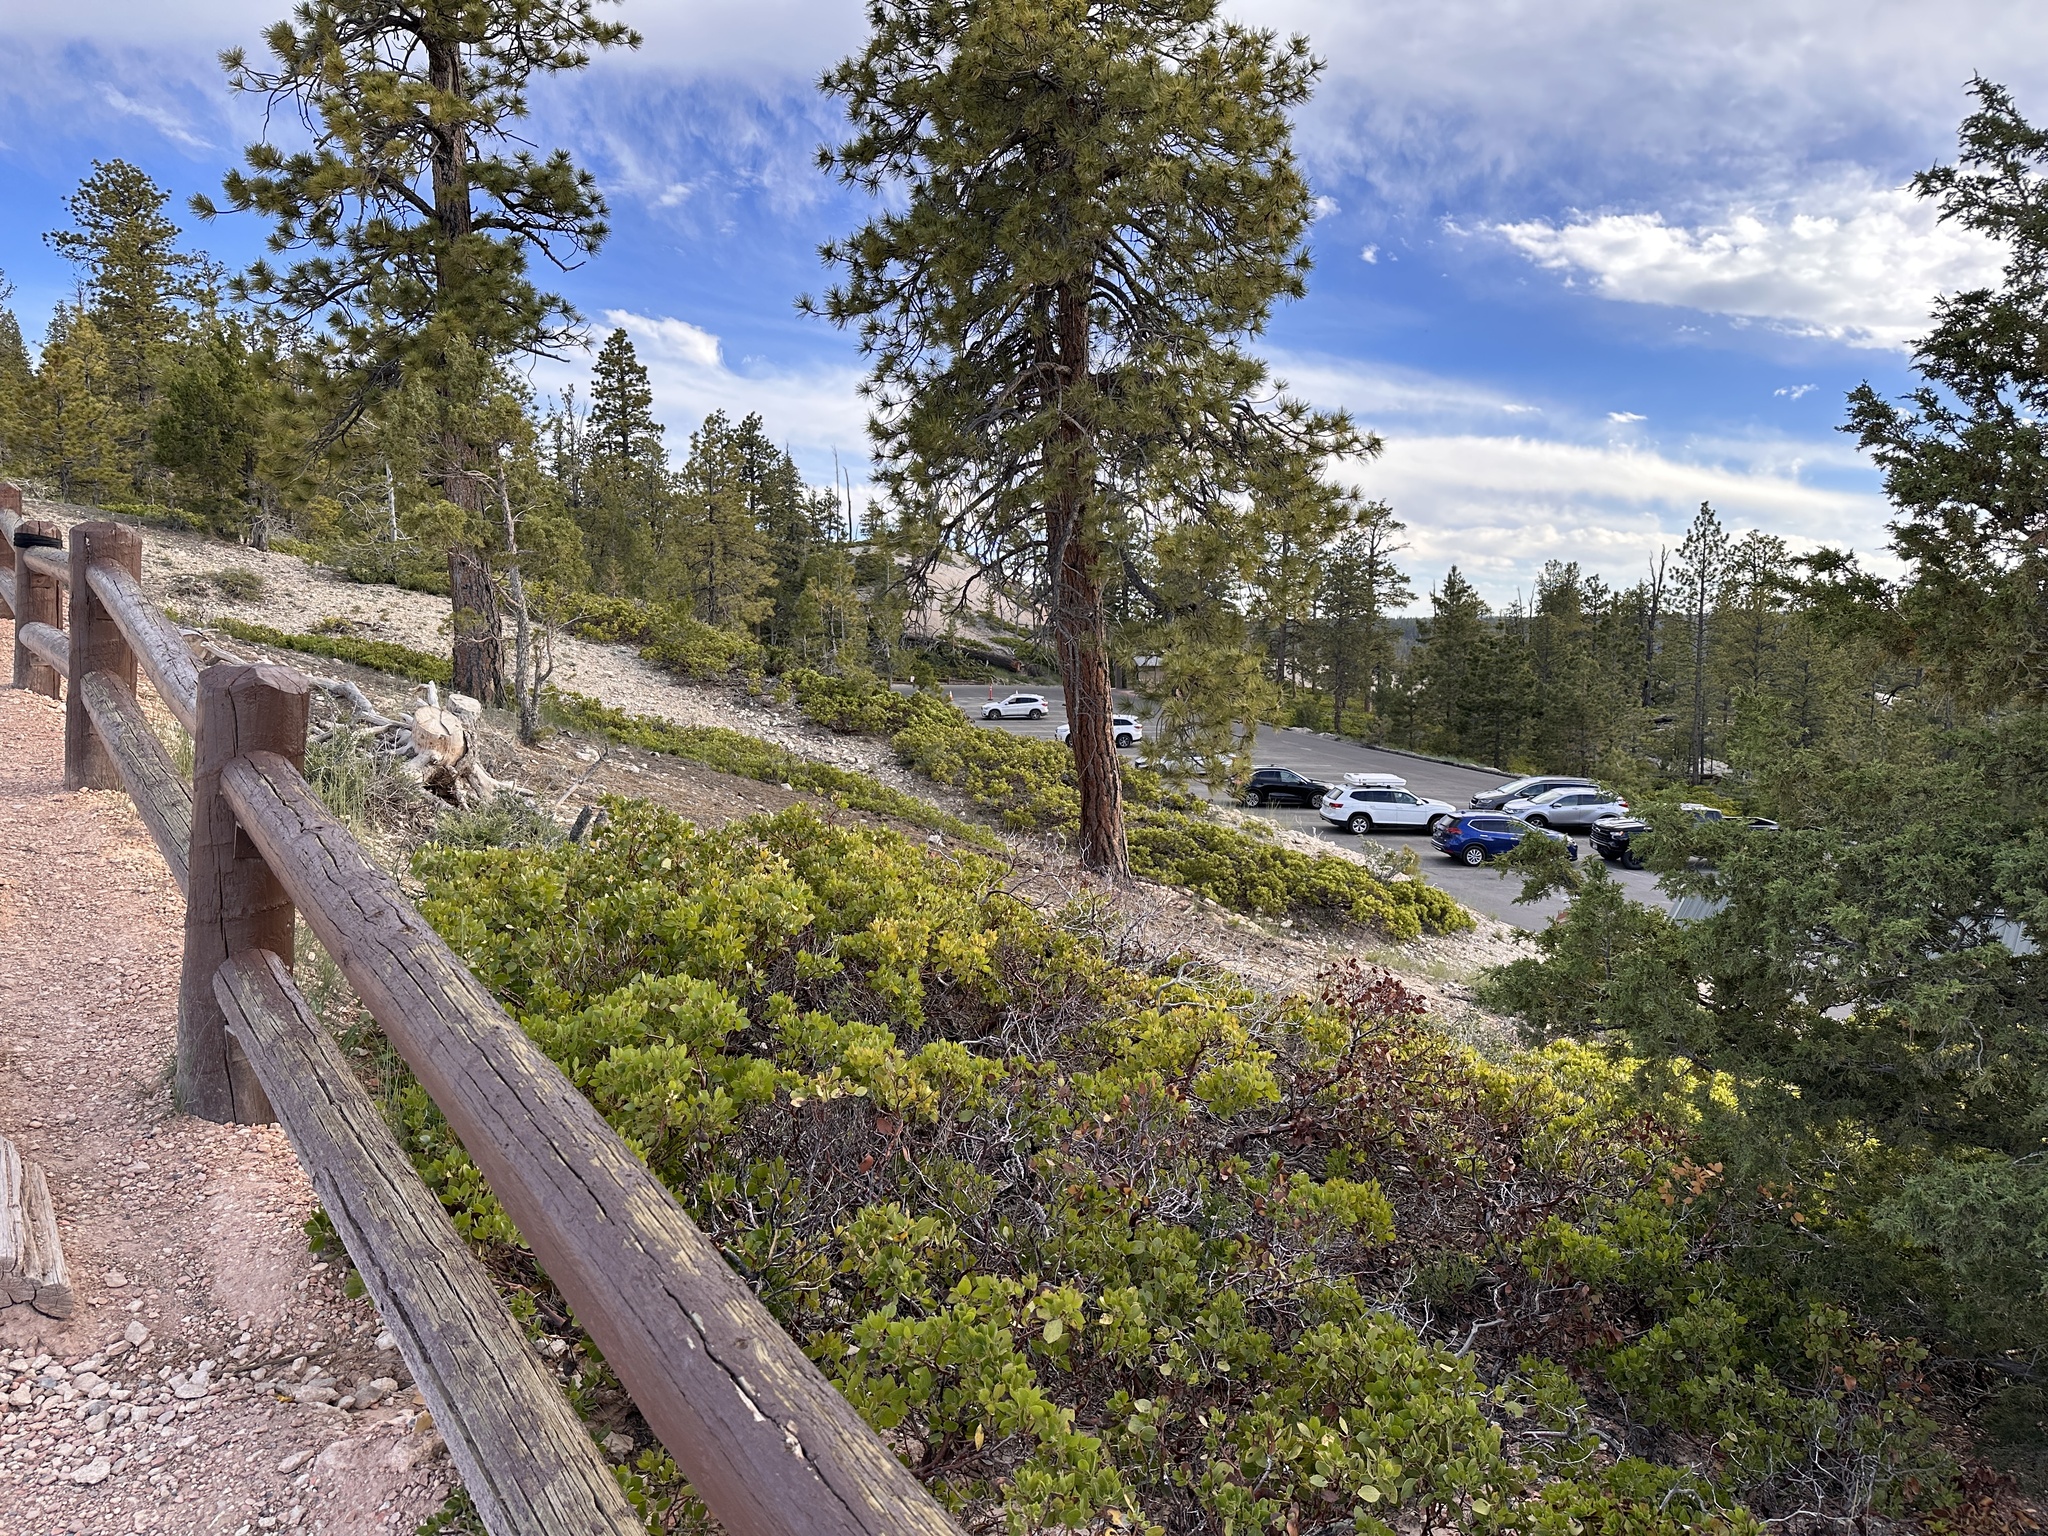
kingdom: Plantae
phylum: Tracheophyta
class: Magnoliopsida
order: Ericales
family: Ericaceae
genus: Arctostaphylos
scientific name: Arctostaphylos patula
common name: Green-leaf manzanita
